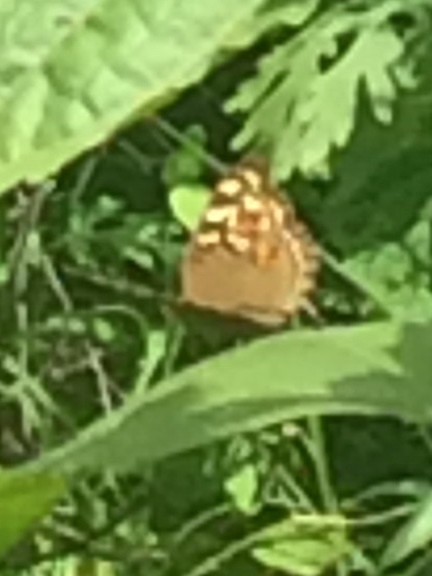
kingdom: Animalia
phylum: Arthropoda
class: Insecta
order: Lepidoptera
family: Nymphalidae
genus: Junonia
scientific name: Junonia lemonias
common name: Lemon pansy
